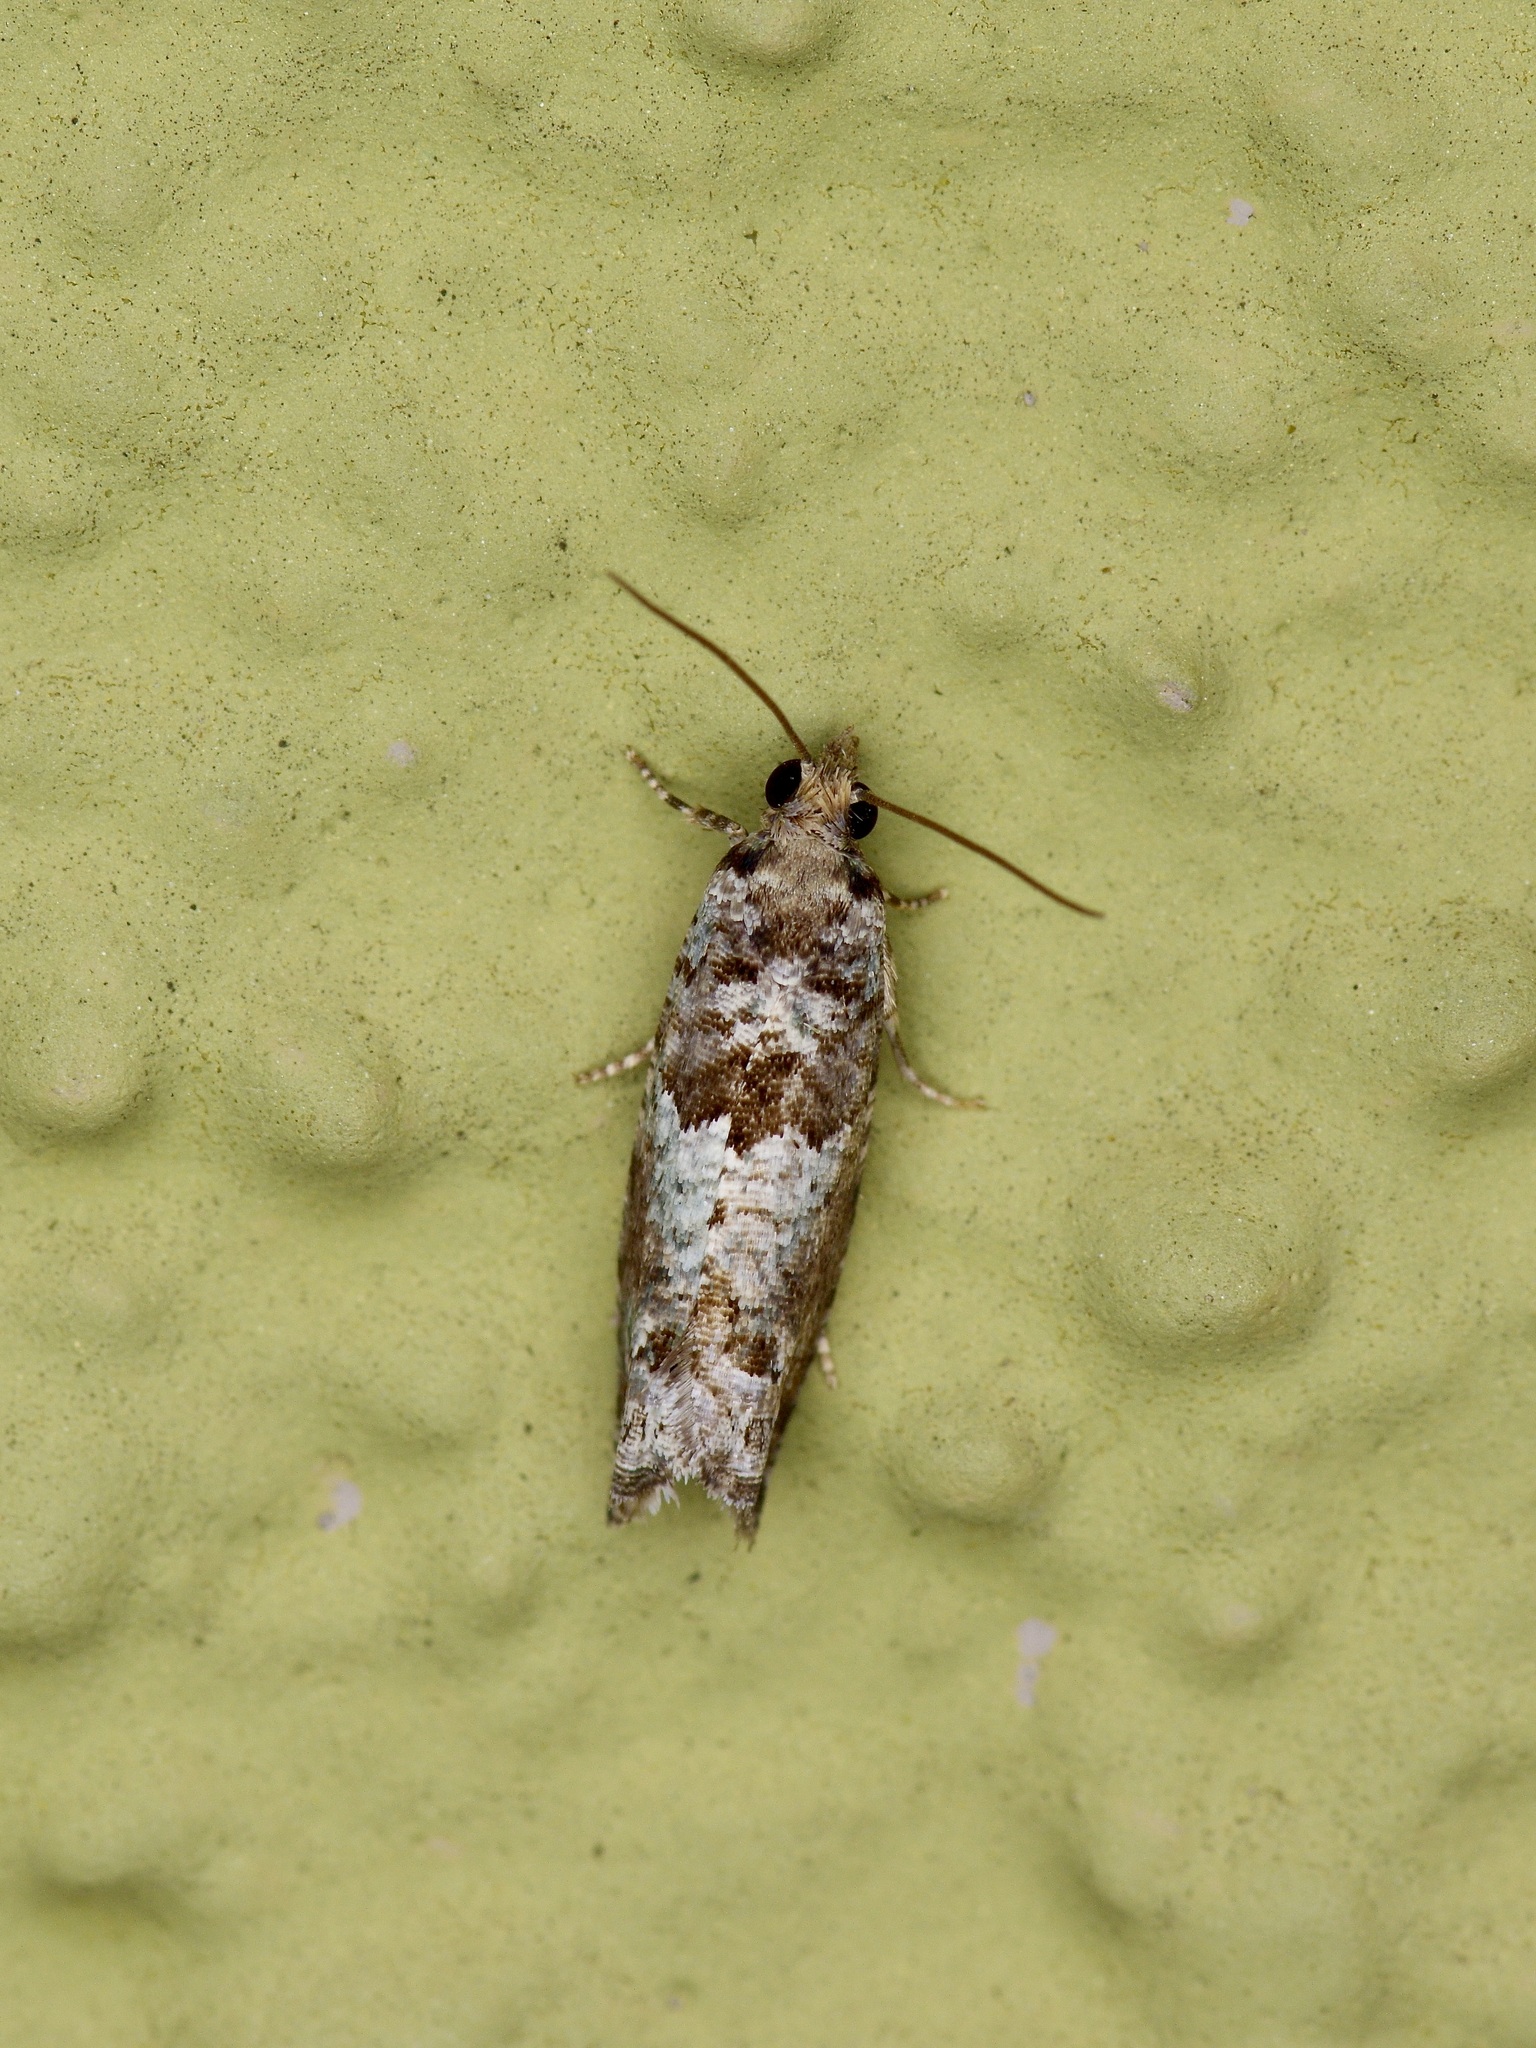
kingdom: Animalia
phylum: Arthropoda
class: Insecta
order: Lepidoptera
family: Tortricidae
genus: Pseudexentera
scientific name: Pseudexentera knudsoni
